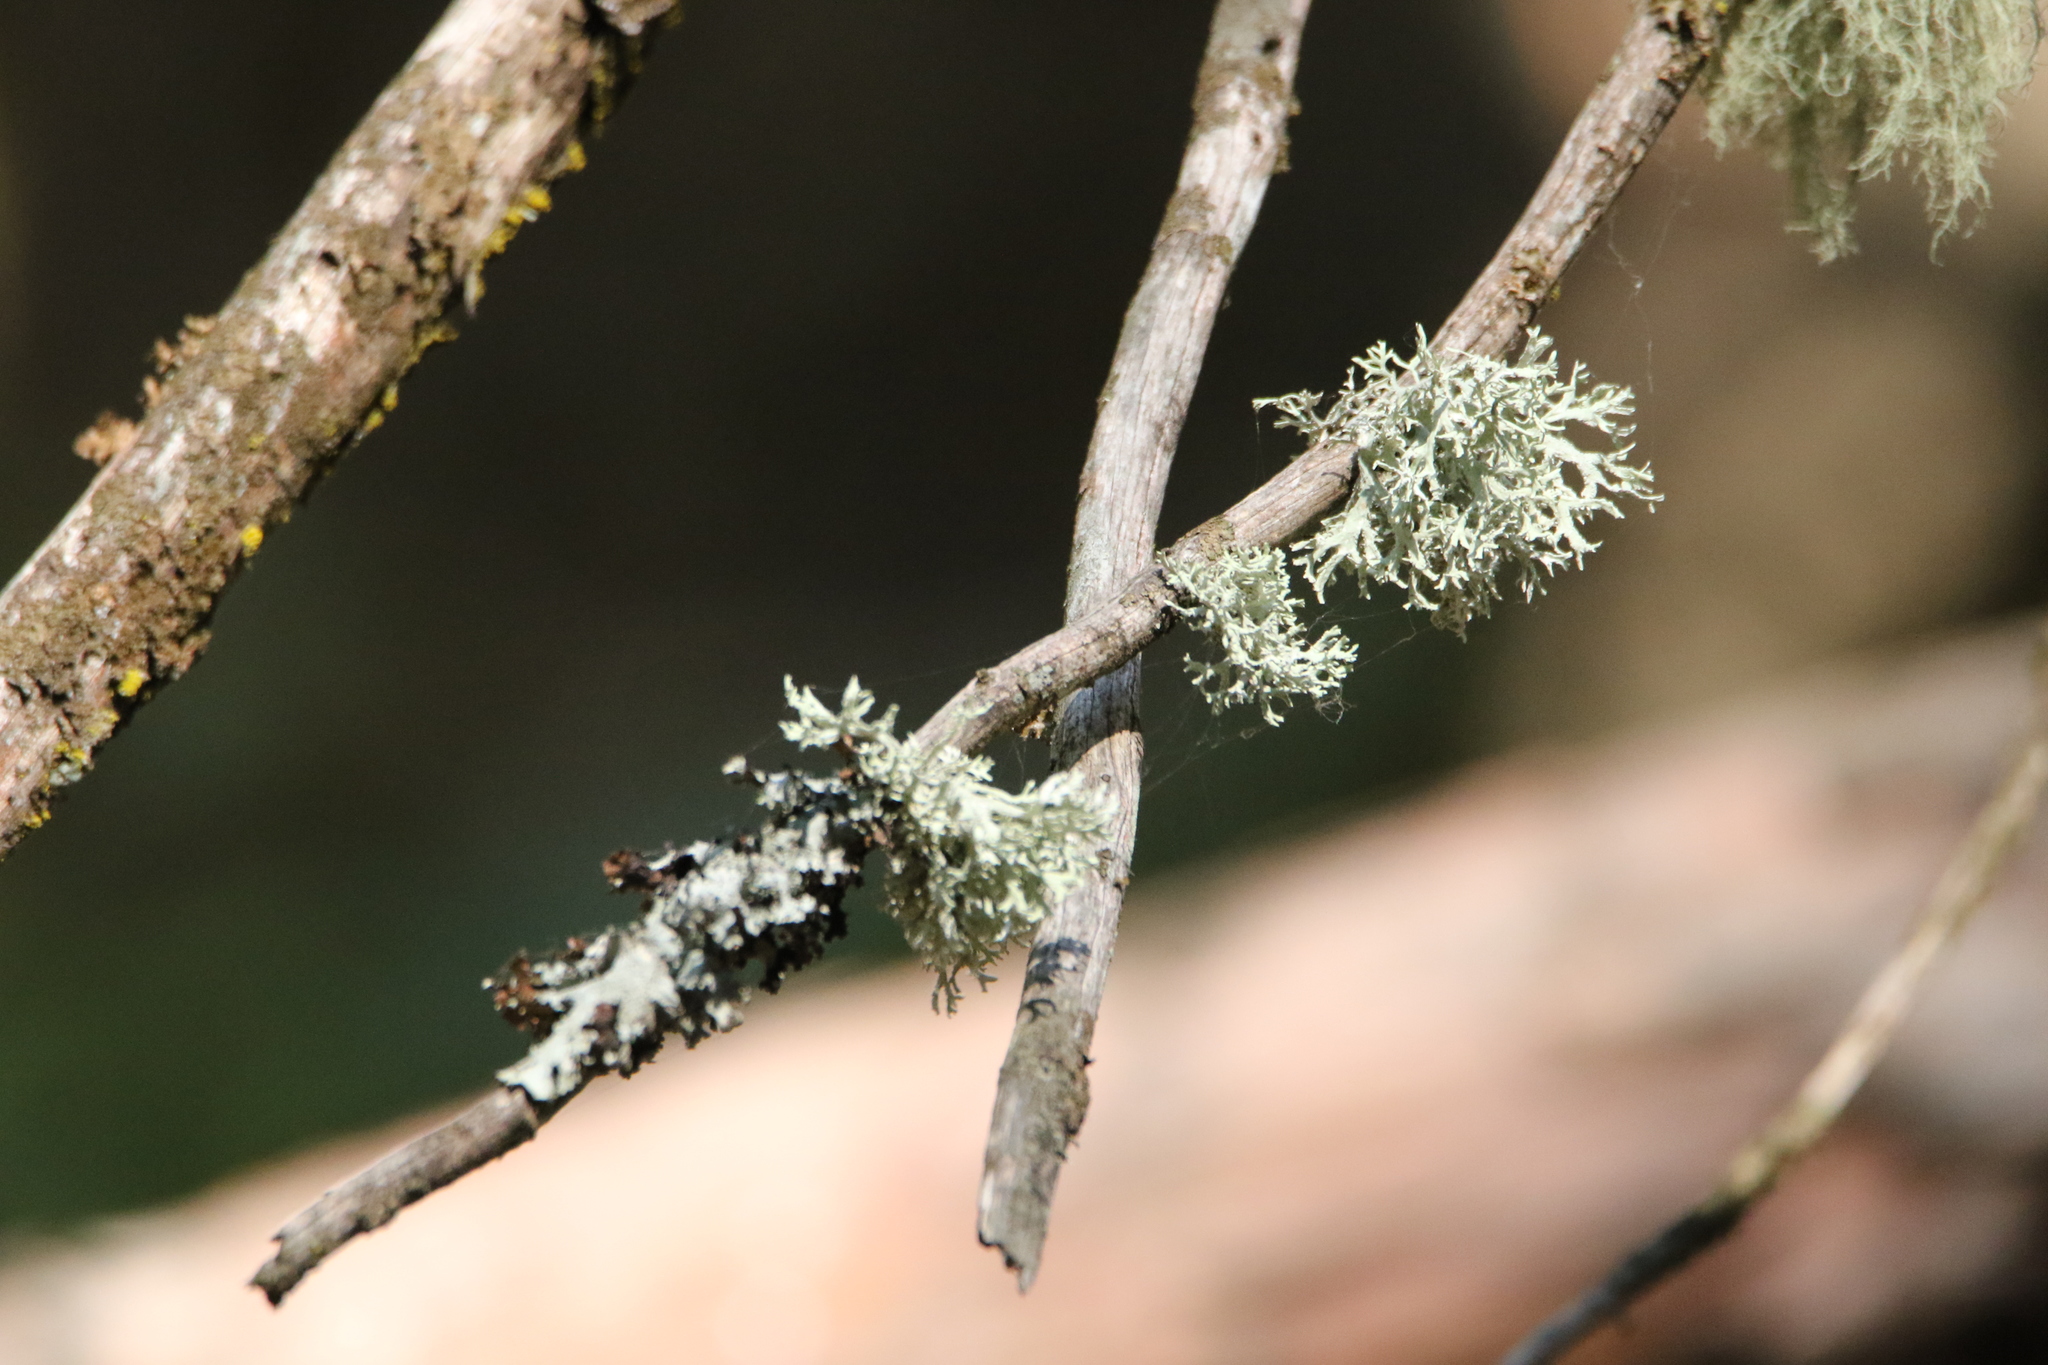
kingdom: Fungi
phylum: Ascomycota
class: Lecanoromycetes
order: Lecanorales
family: Parmeliaceae
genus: Evernia
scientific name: Evernia prunastri
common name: Oak moss
